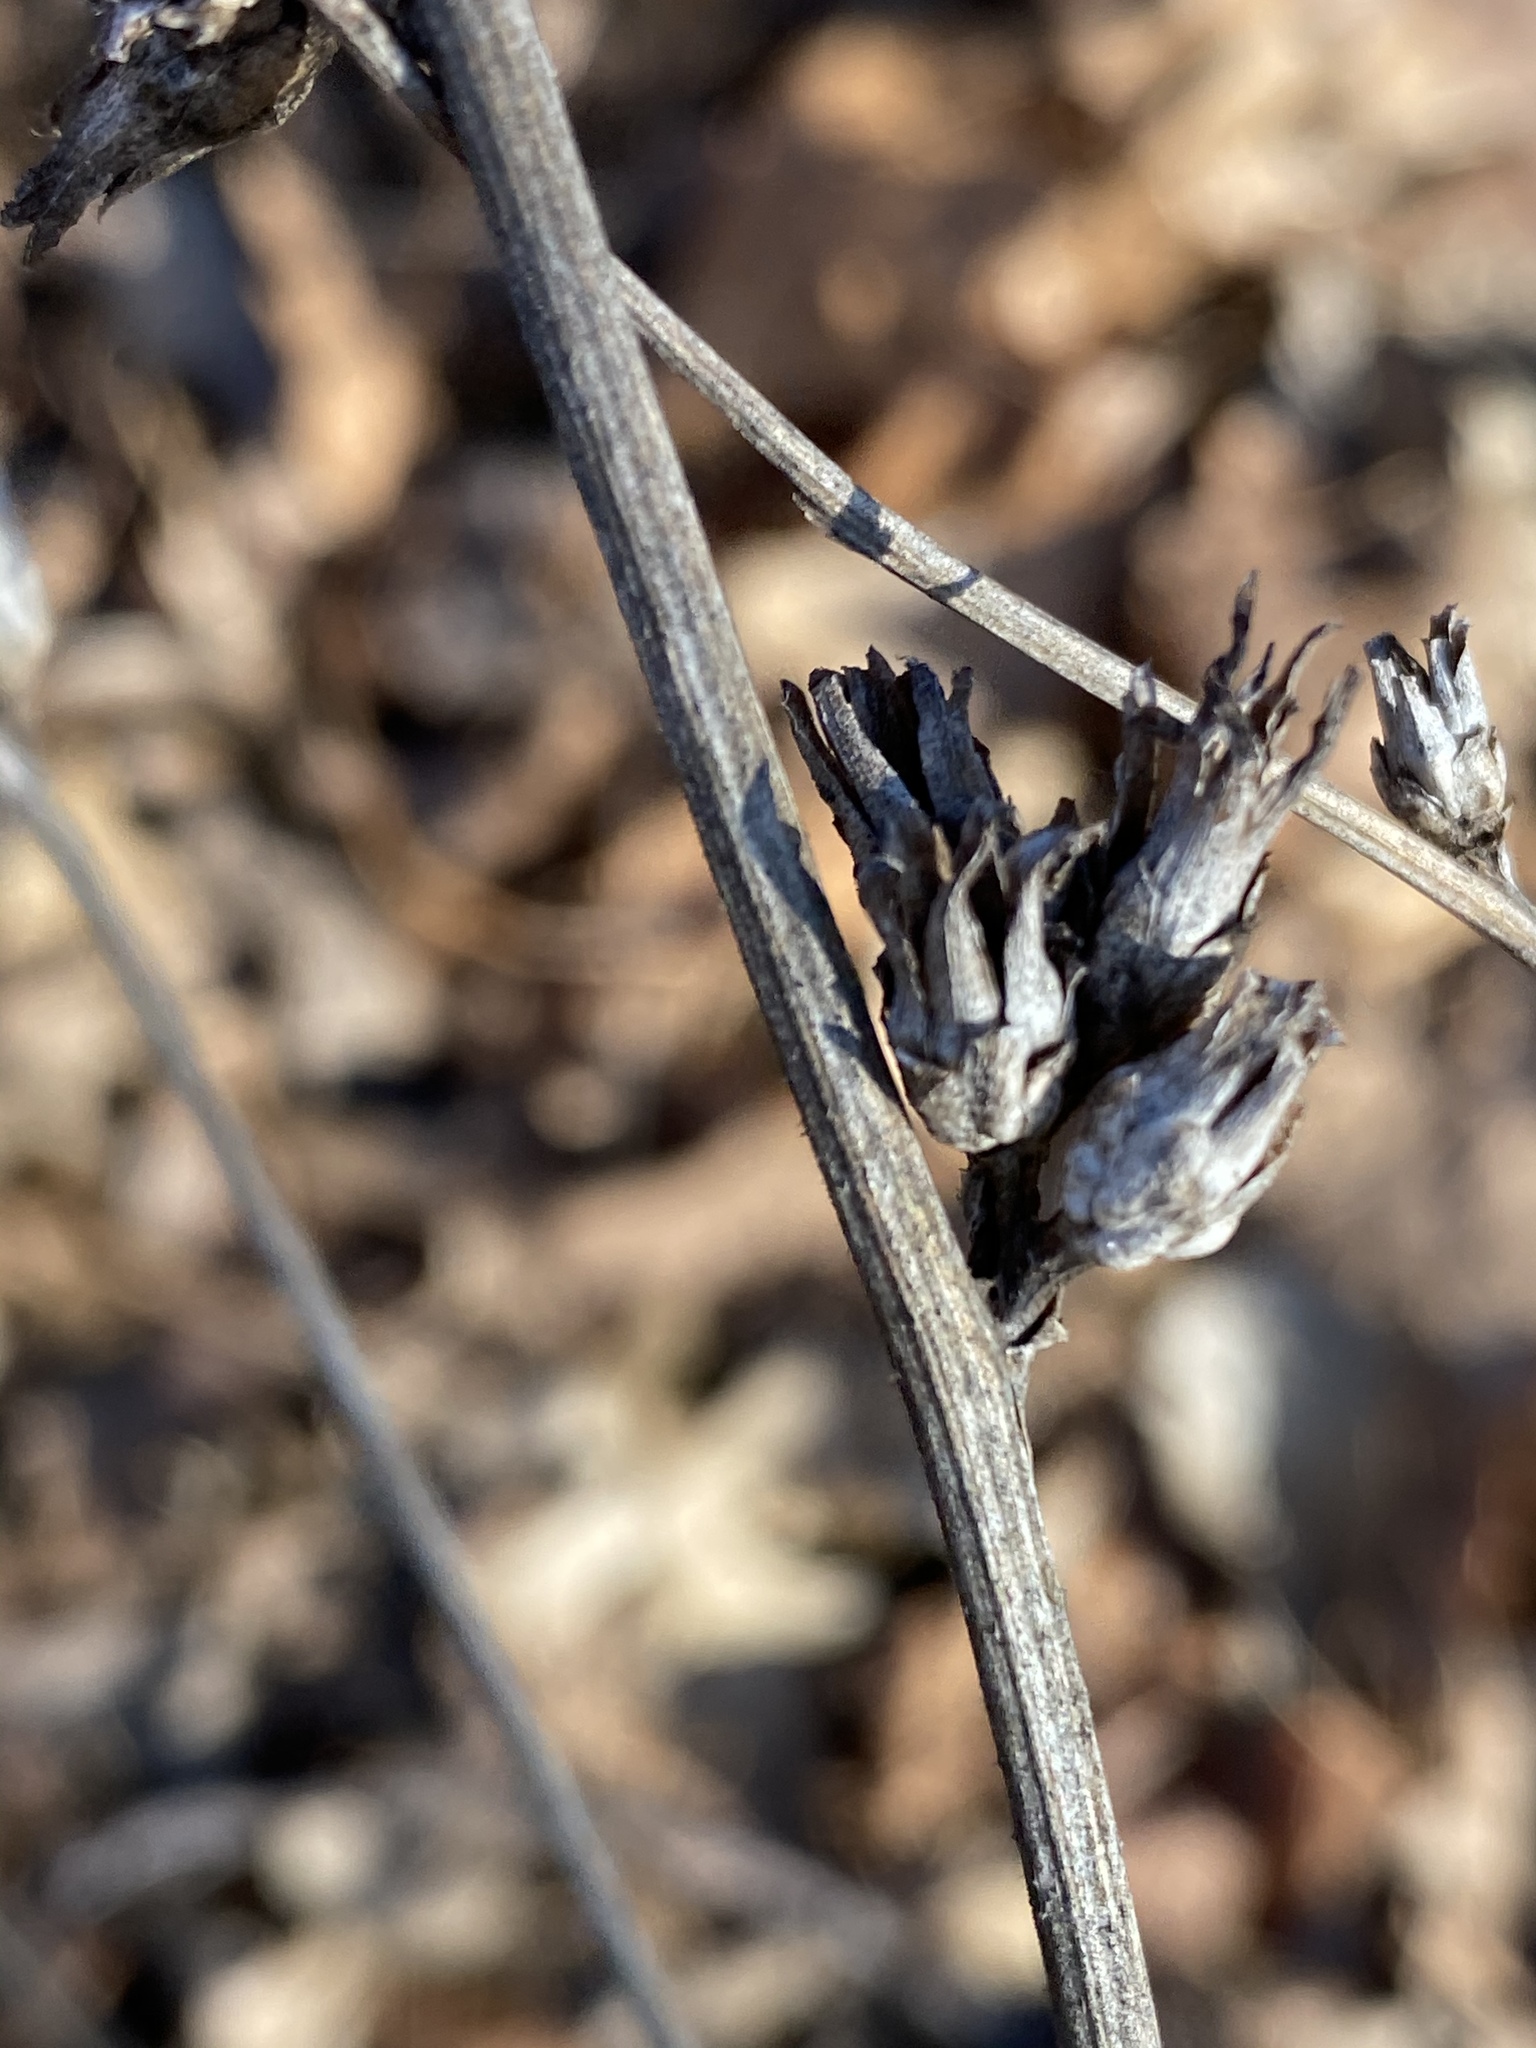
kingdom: Plantae
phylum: Tracheophyta
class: Magnoliopsida
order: Asterales
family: Asteraceae
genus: Cichorium
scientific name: Cichorium intybus
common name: Chicory
